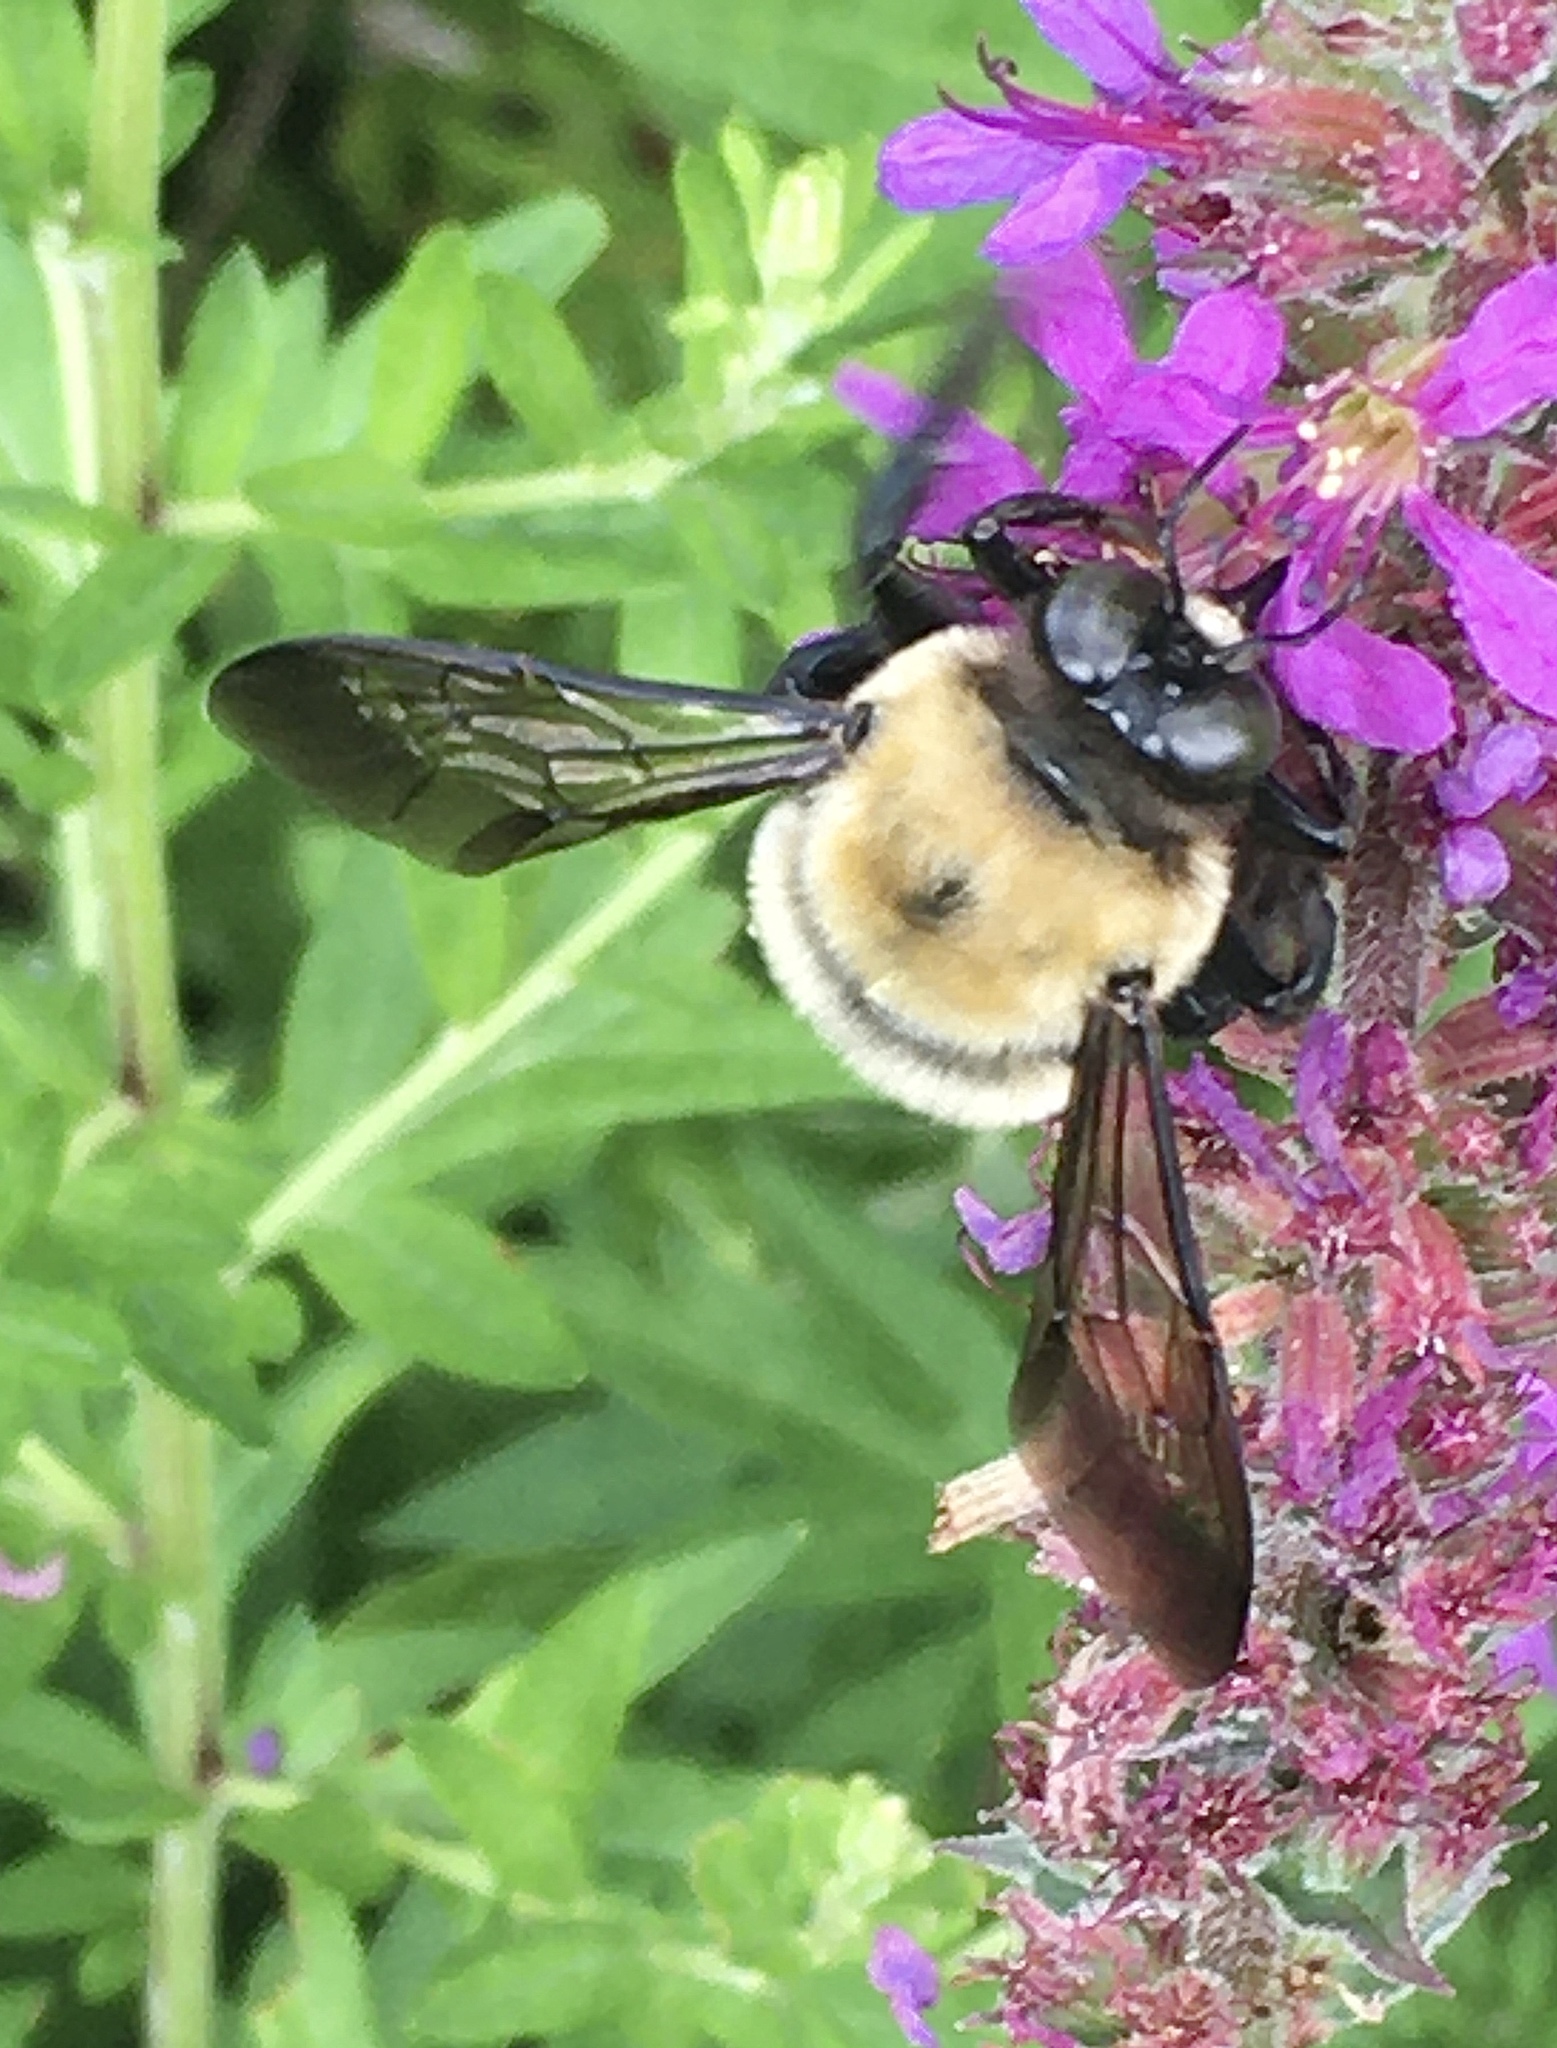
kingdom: Animalia
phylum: Arthropoda
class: Insecta
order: Hymenoptera
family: Apidae
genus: Xylocopa
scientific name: Xylocopa virginica
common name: Carpenter bee
